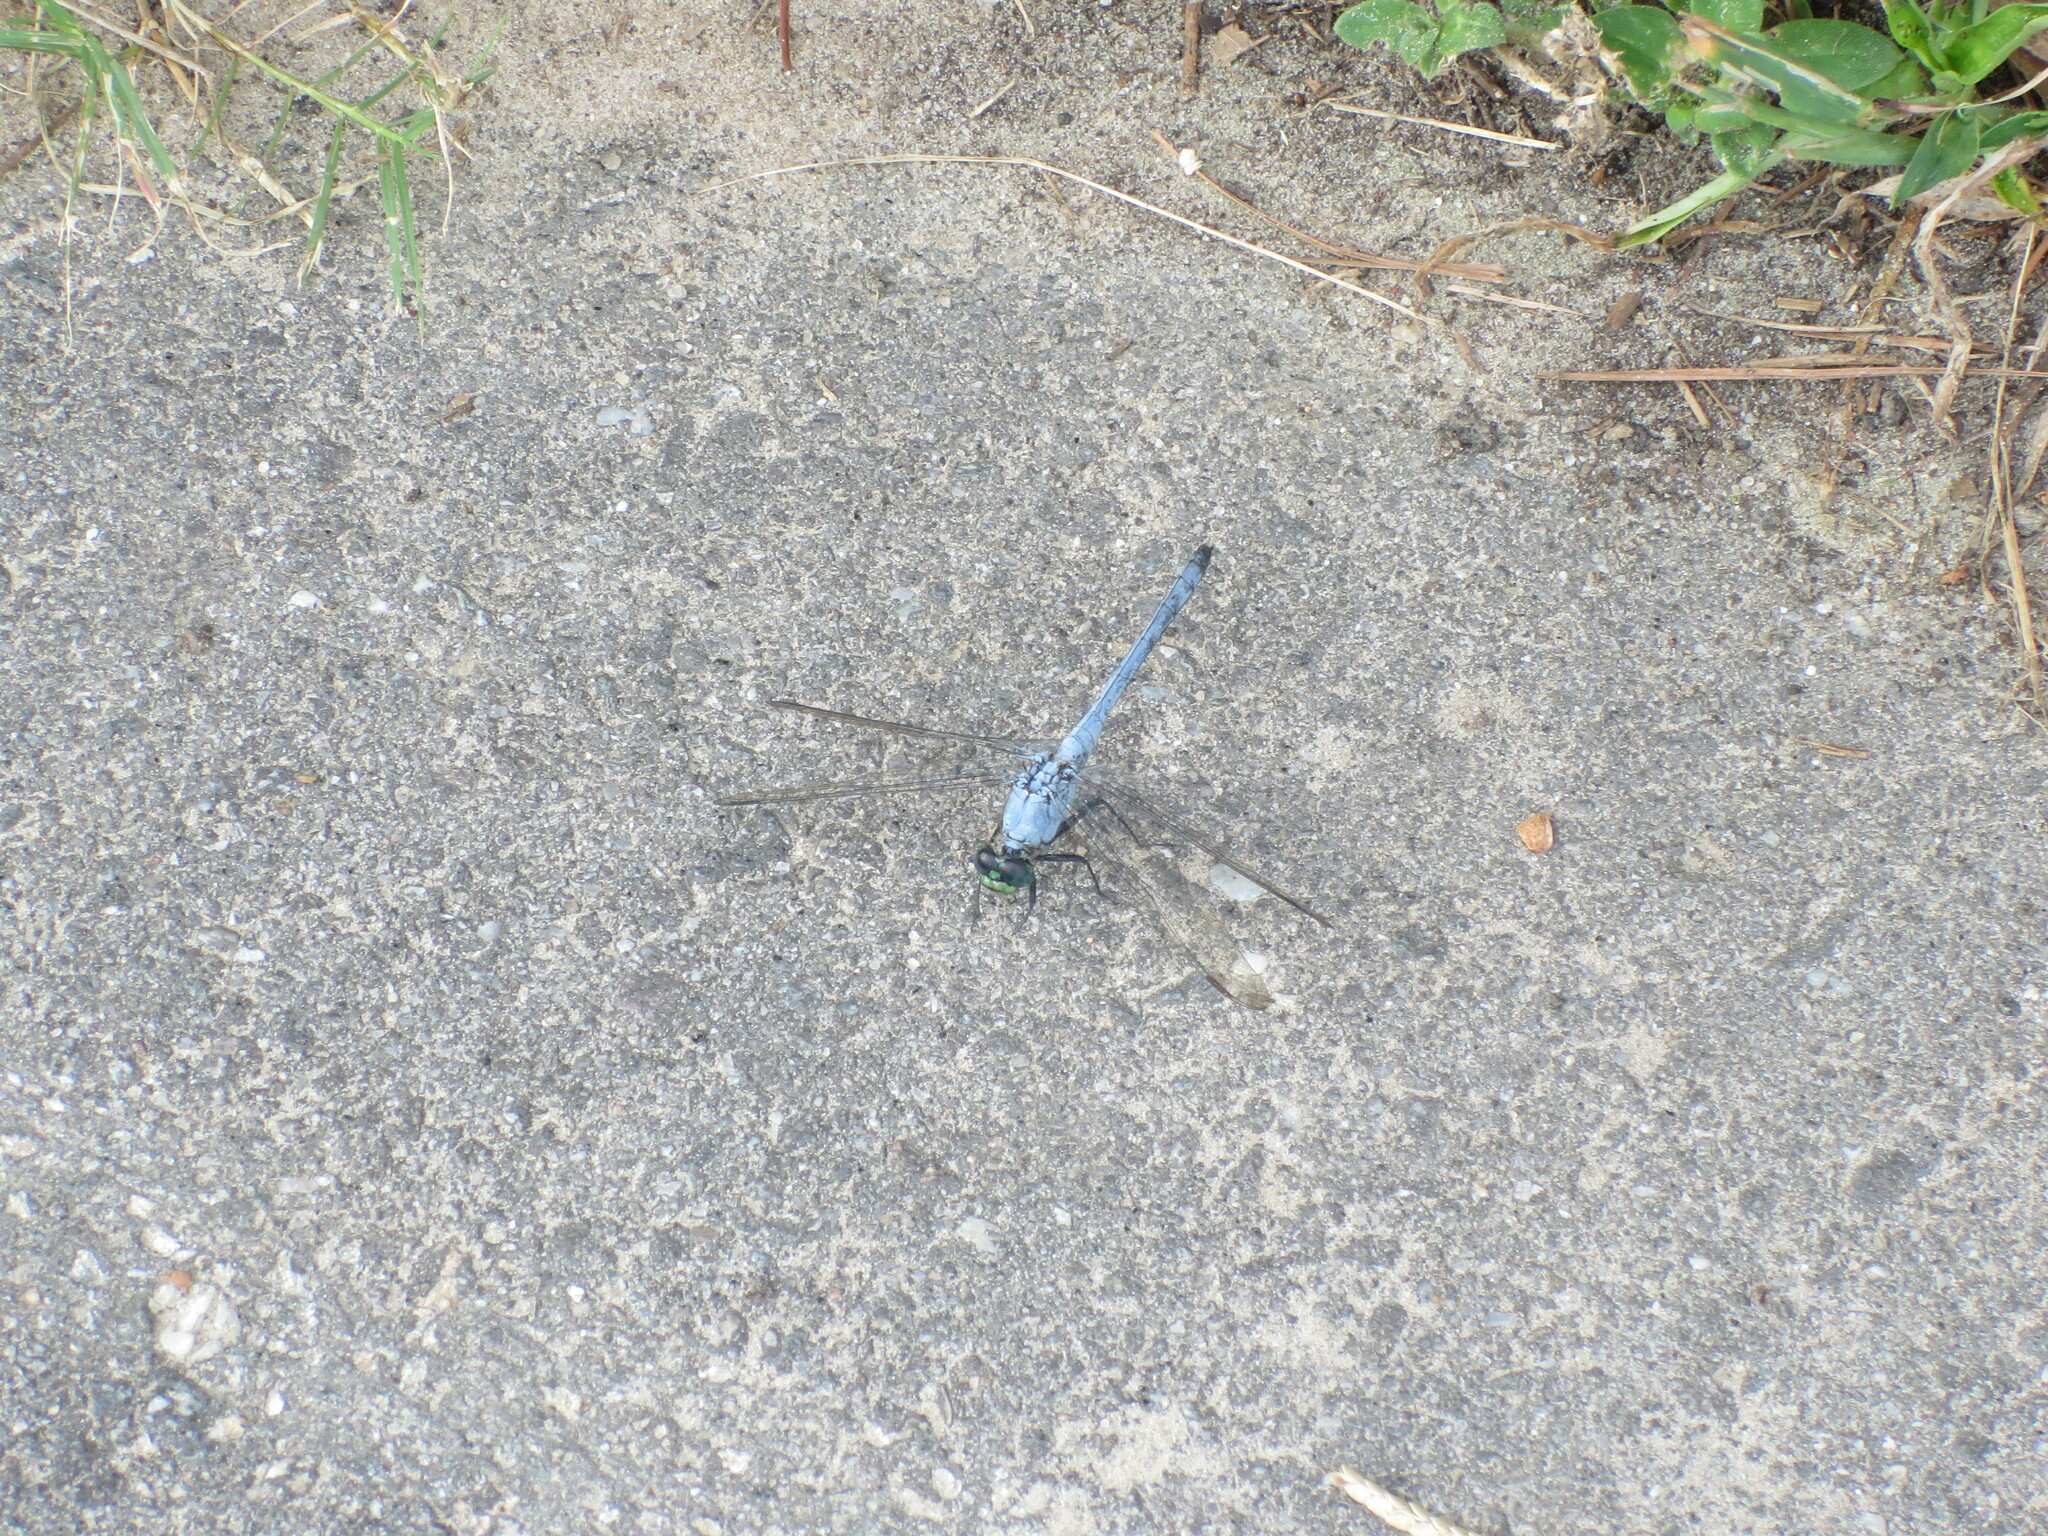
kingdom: Animalia
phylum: Arthropoda
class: Insecta
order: Odonata
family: Libellulidae
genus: Erythemis
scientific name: Erythemis simplicicollis
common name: Eastern pondhawk
